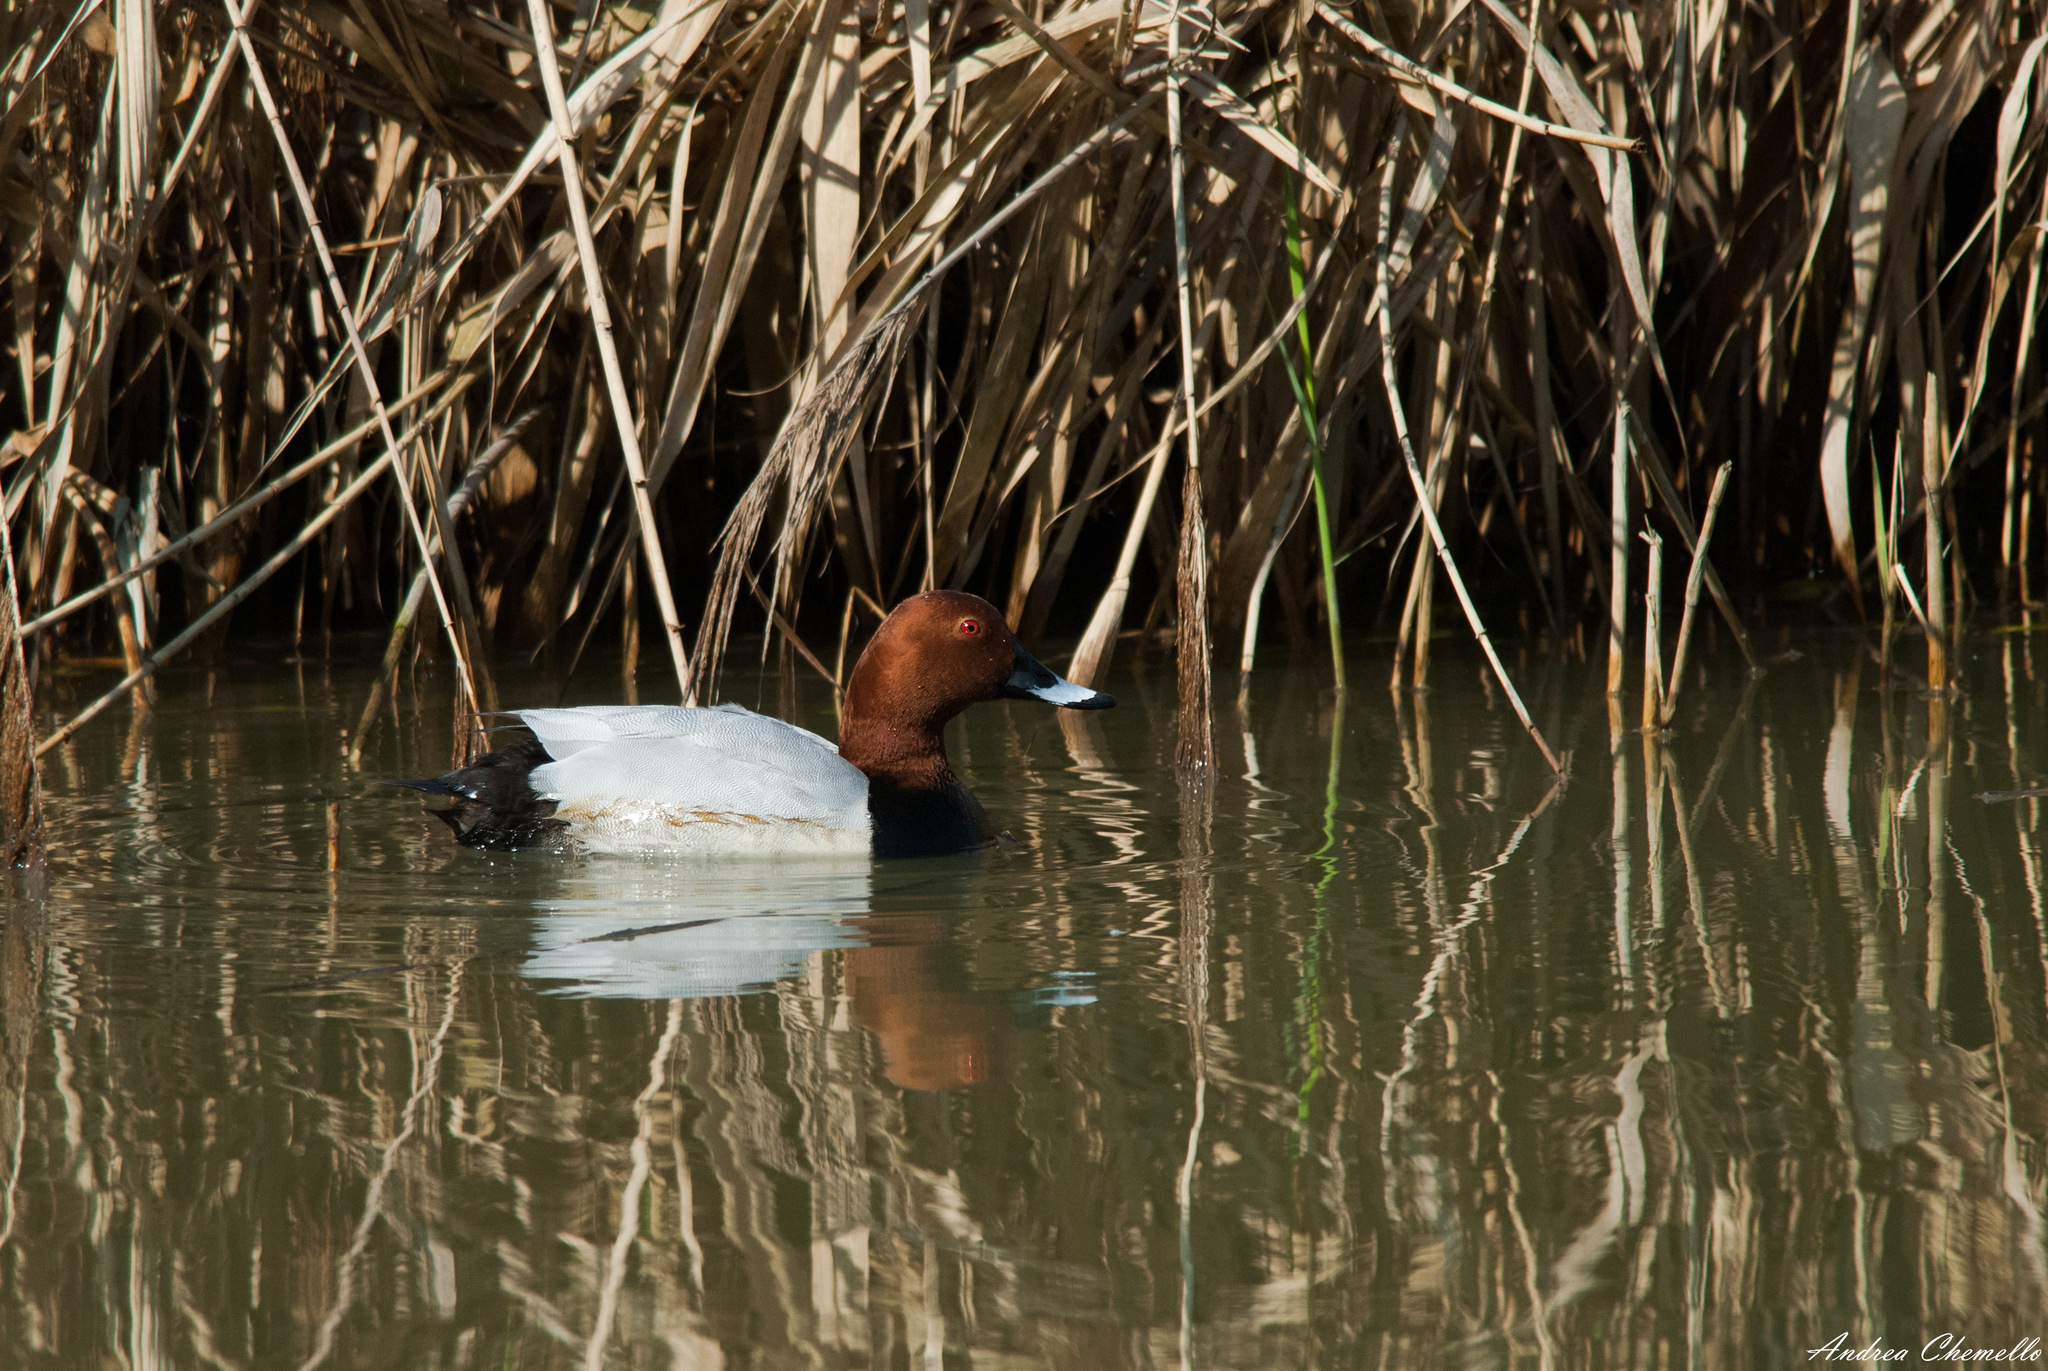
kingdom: Animalia
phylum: Chordata
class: Aves
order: Anseriformes
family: Anatidae
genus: Aythya
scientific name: Aythya ferina
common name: Common pochard
